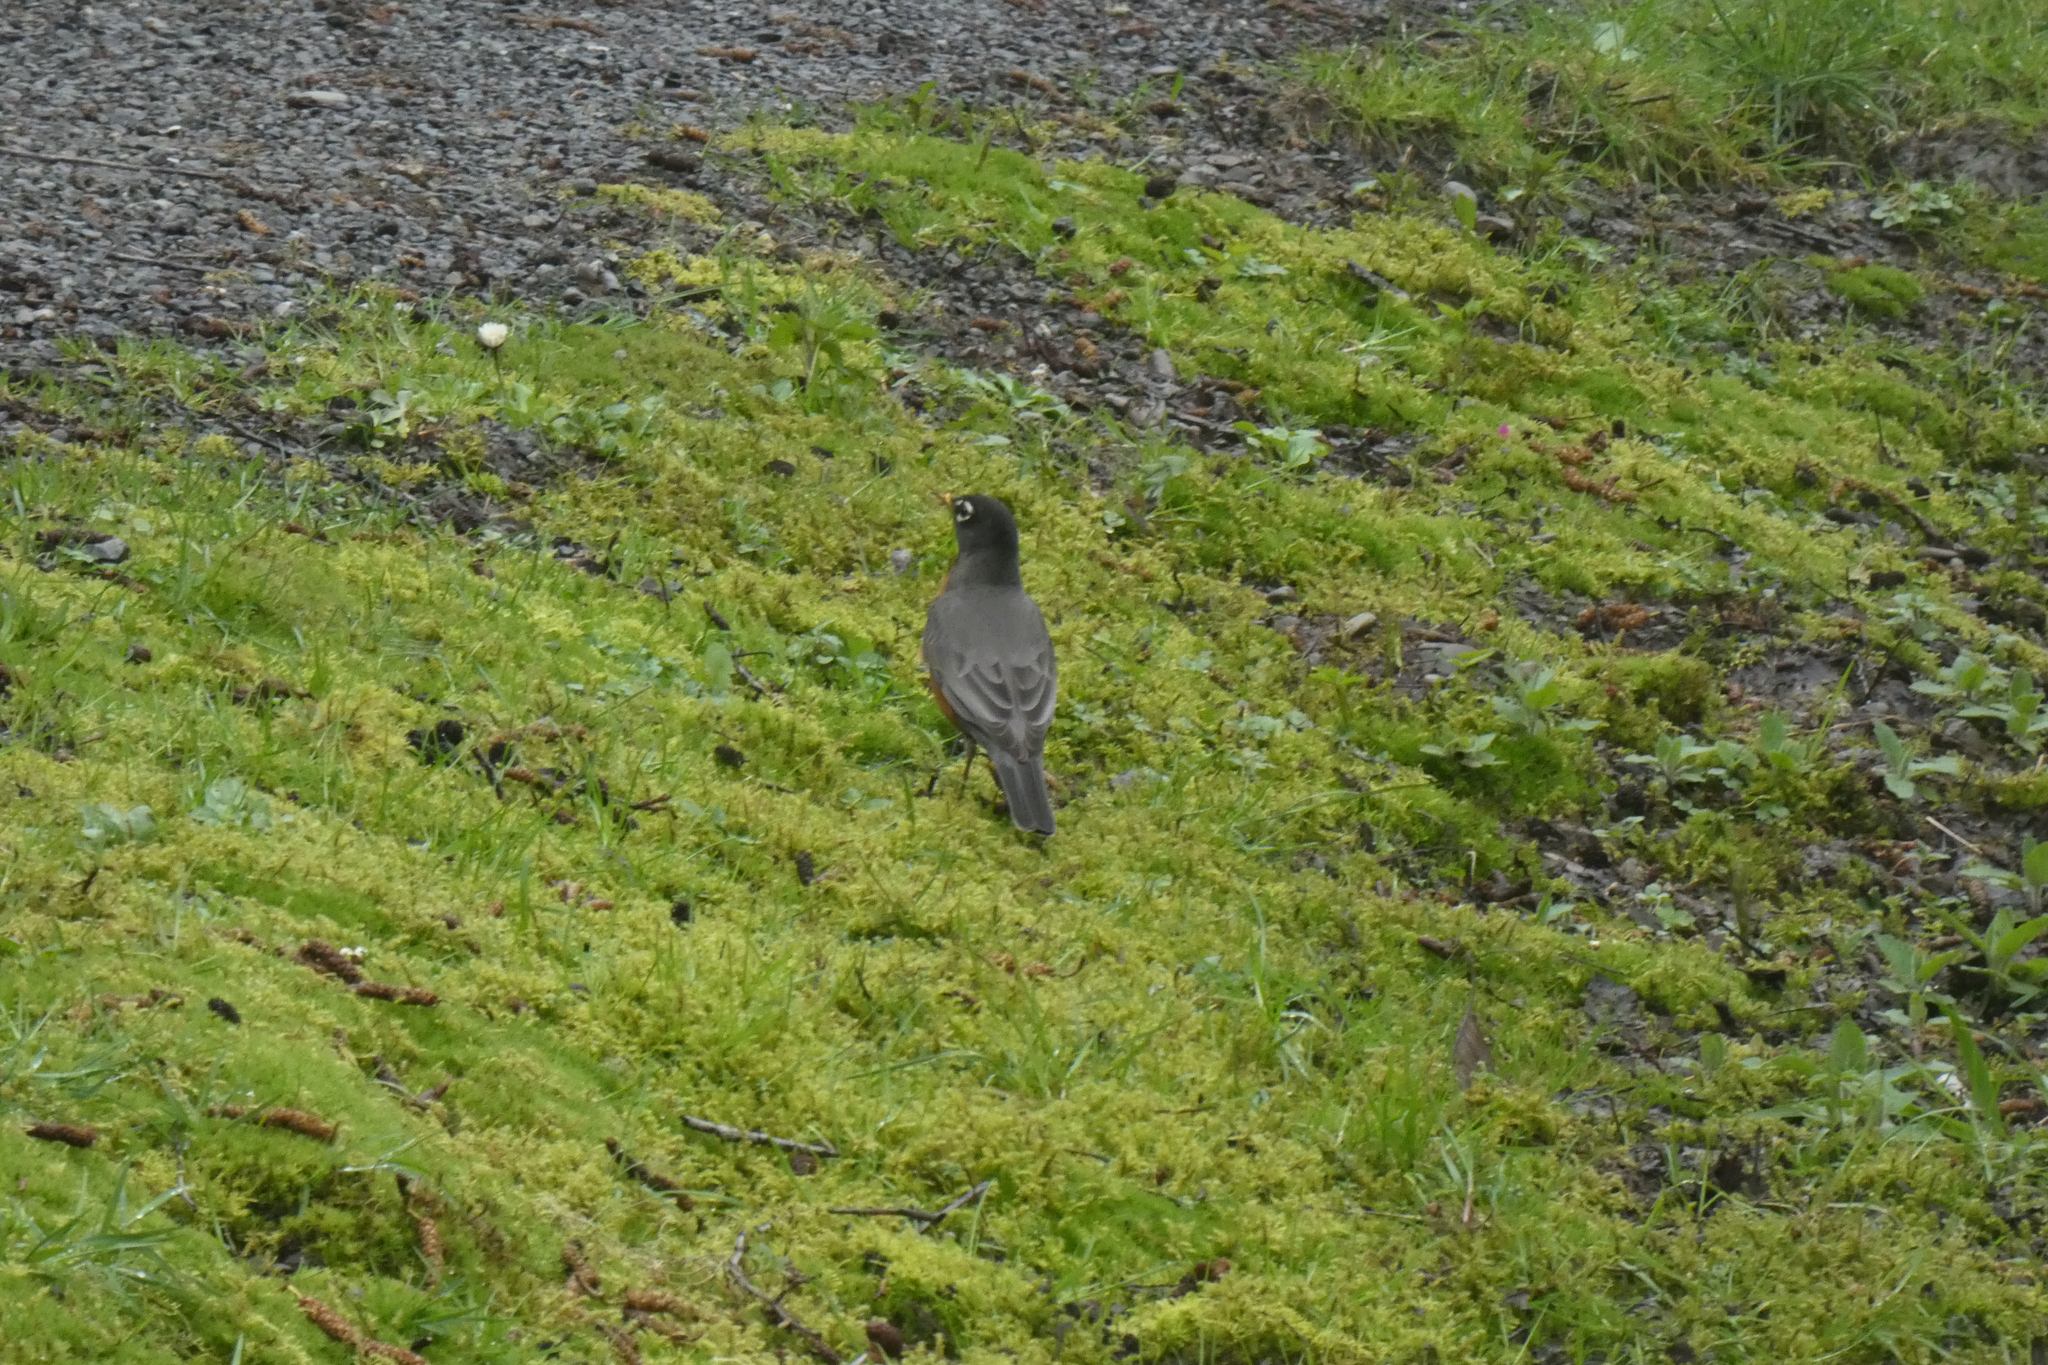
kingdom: Animalia
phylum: Chordata
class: Aves
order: Passeriformes
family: Turdidae
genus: Turdus
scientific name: Turdus migratorius
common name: American robin
